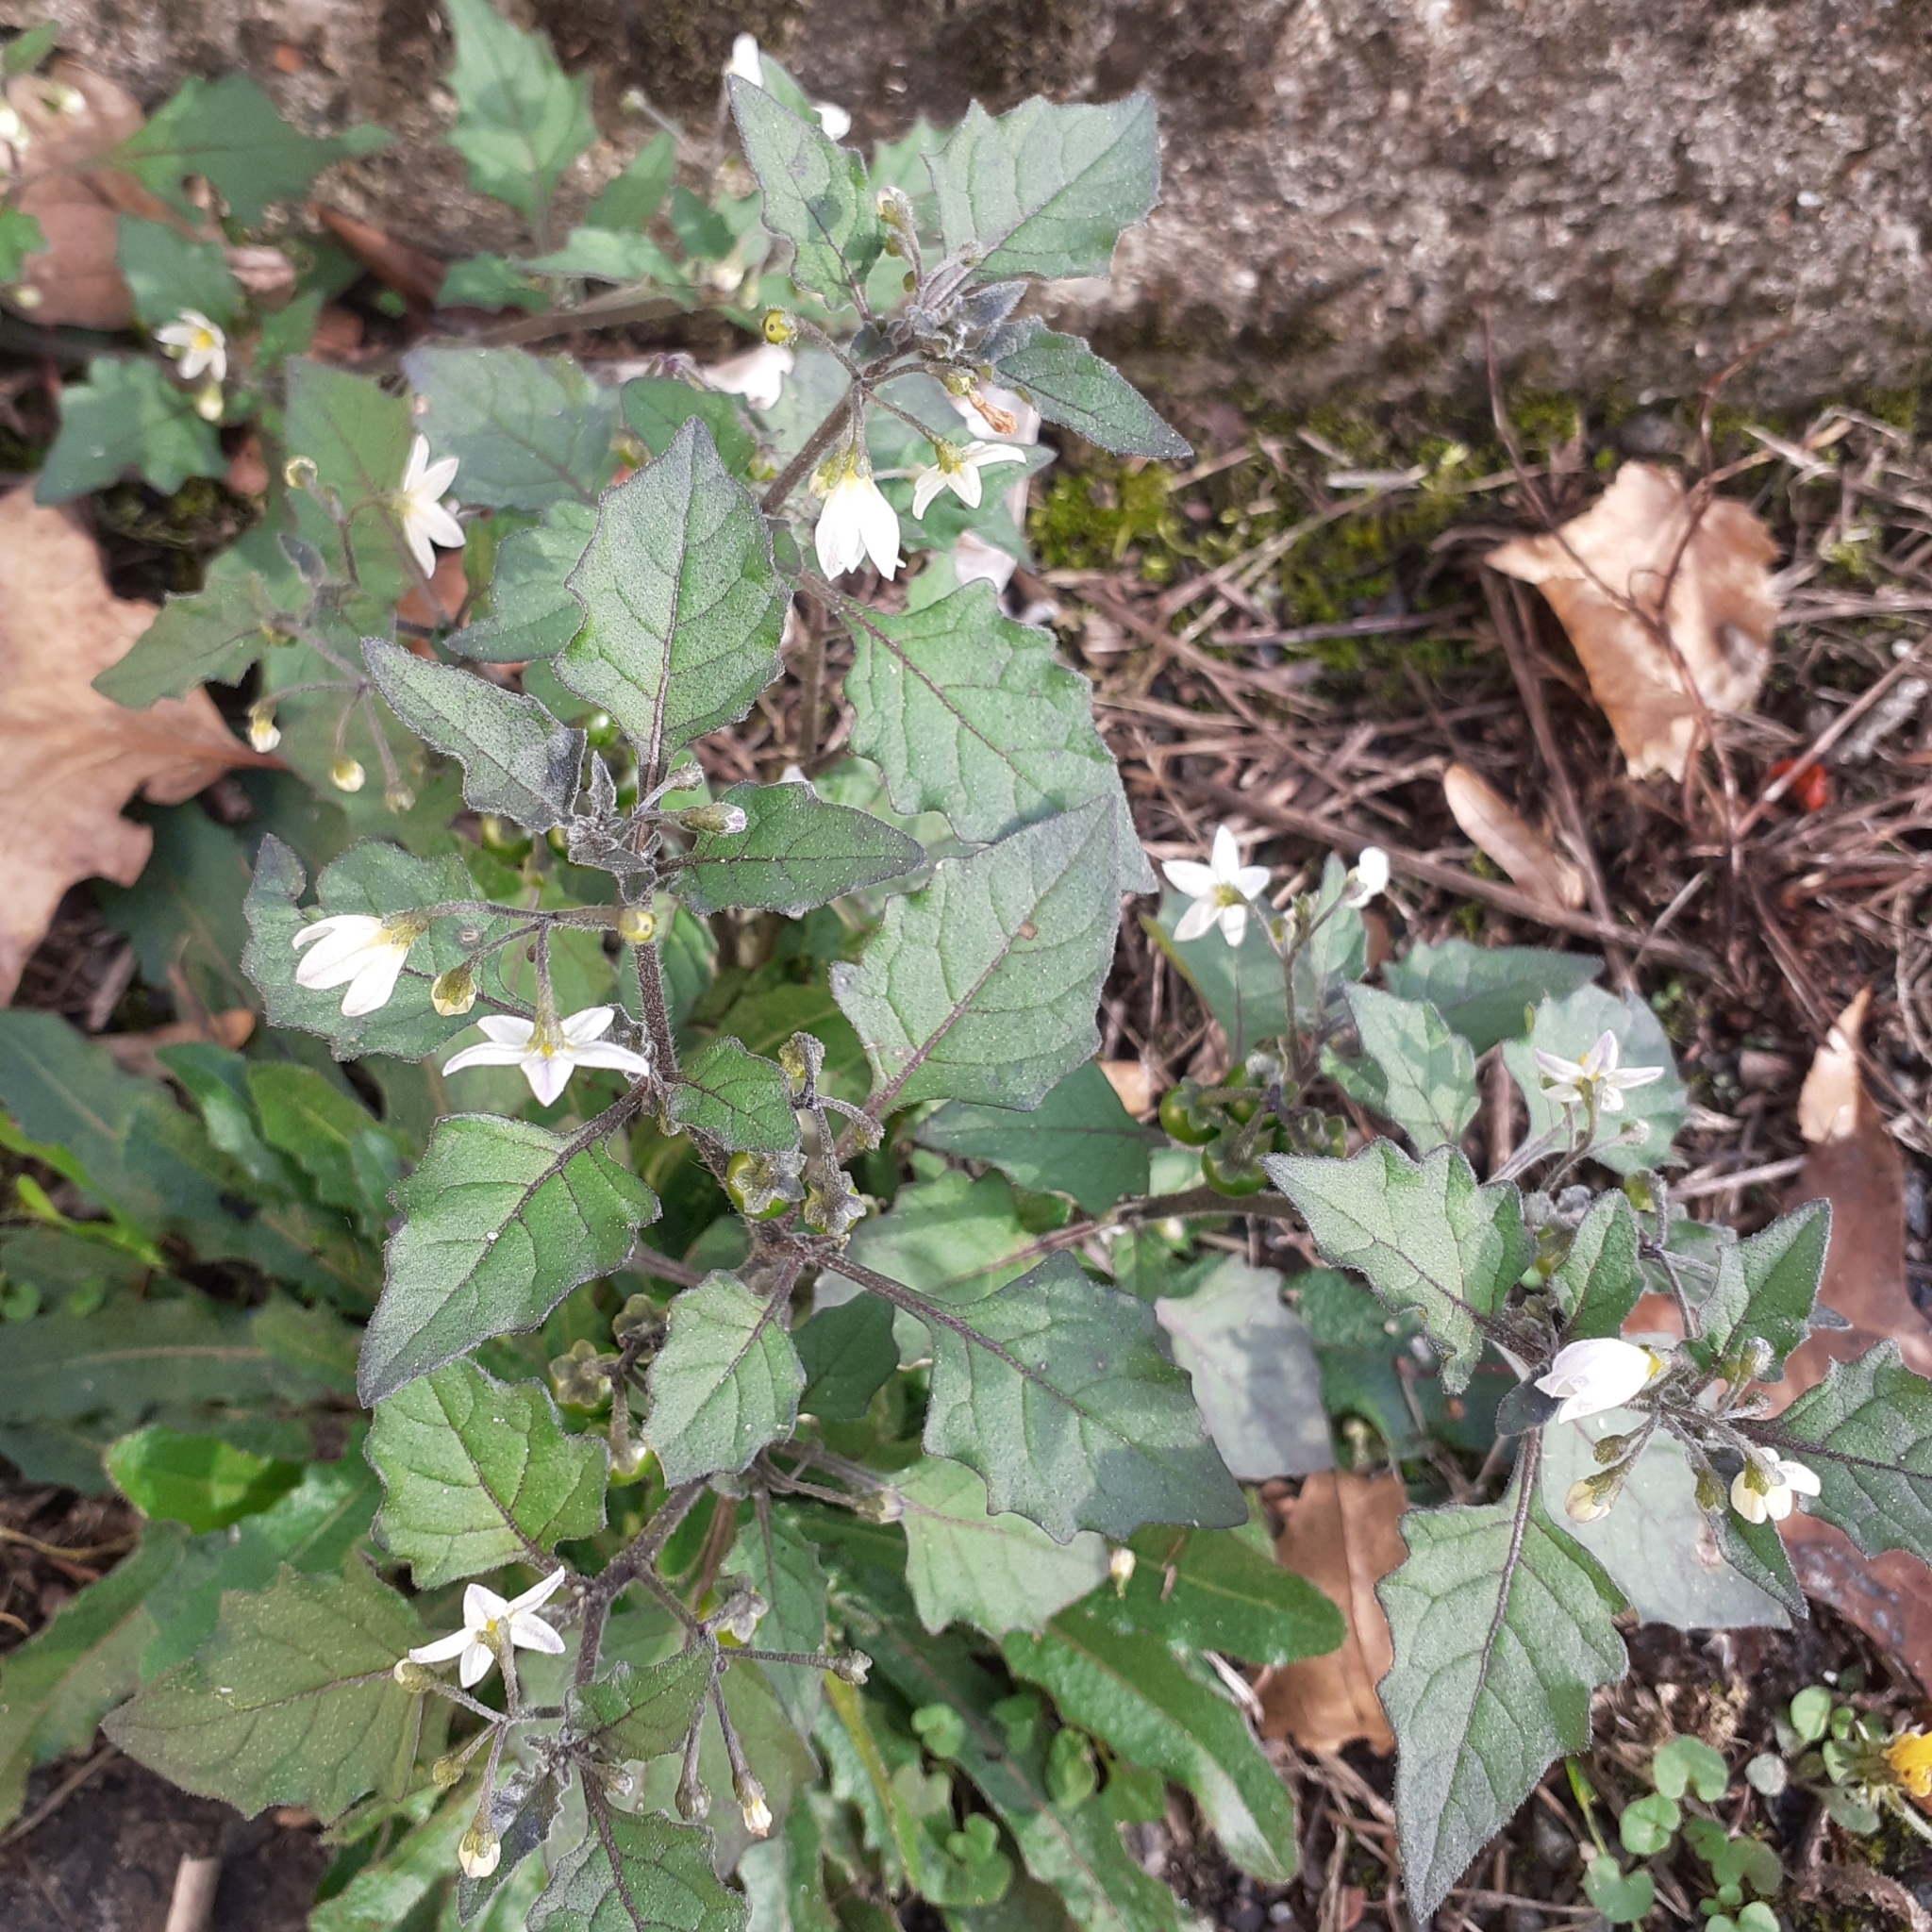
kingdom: Plantae
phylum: Tracheophyta
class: Magnoliopsida
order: Solanales
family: Solanaceae
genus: Solanum
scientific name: Solanum nigrum
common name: Black nightshade
